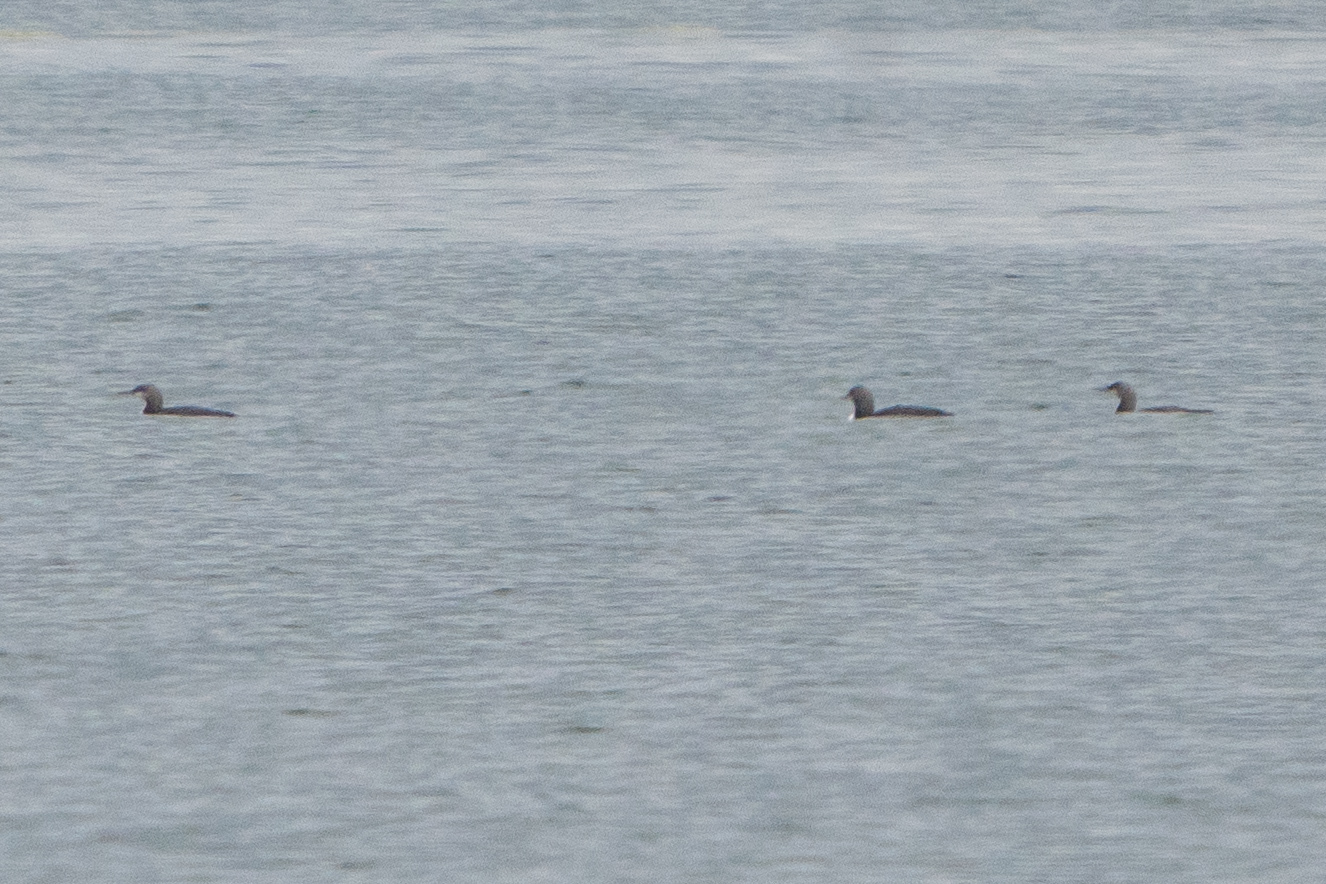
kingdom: Animalia
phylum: Chordata
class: Aves
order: Gaviiformes
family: Gaviidae
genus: Gavia
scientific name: Gavia pacifica
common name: Pacific loon
